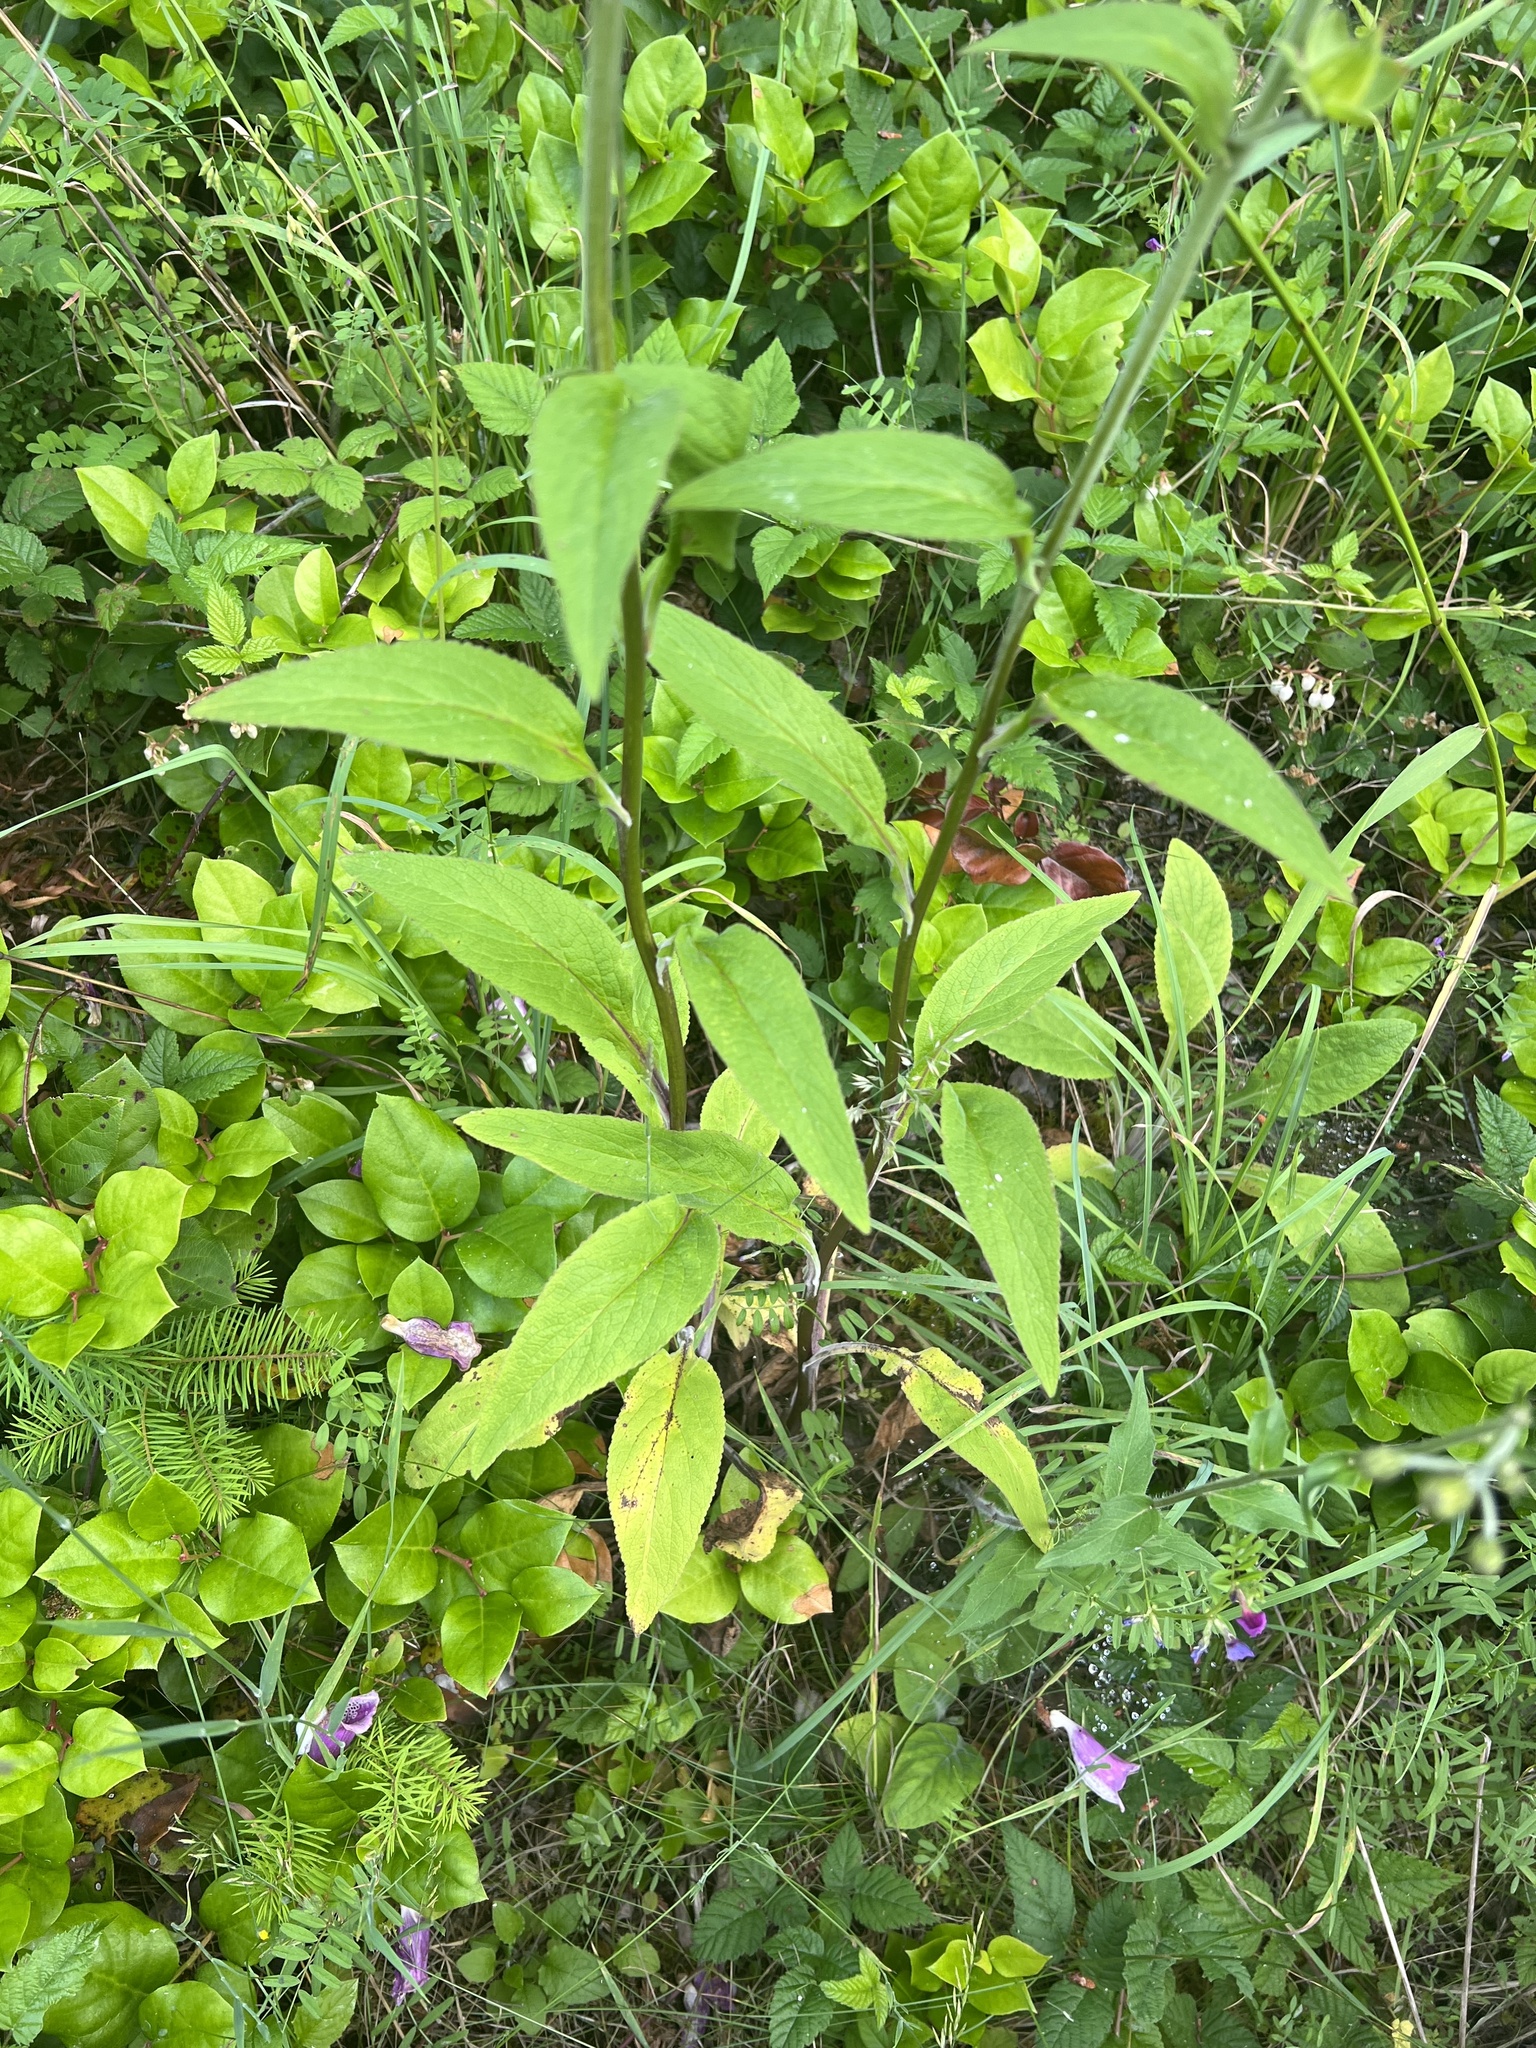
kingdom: Plantae
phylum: Tracheophyta
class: Magnoliopsida
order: Lamiales
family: Plantaginaceae
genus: Digitalis
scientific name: Digitalis purpurea
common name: Foxglove
